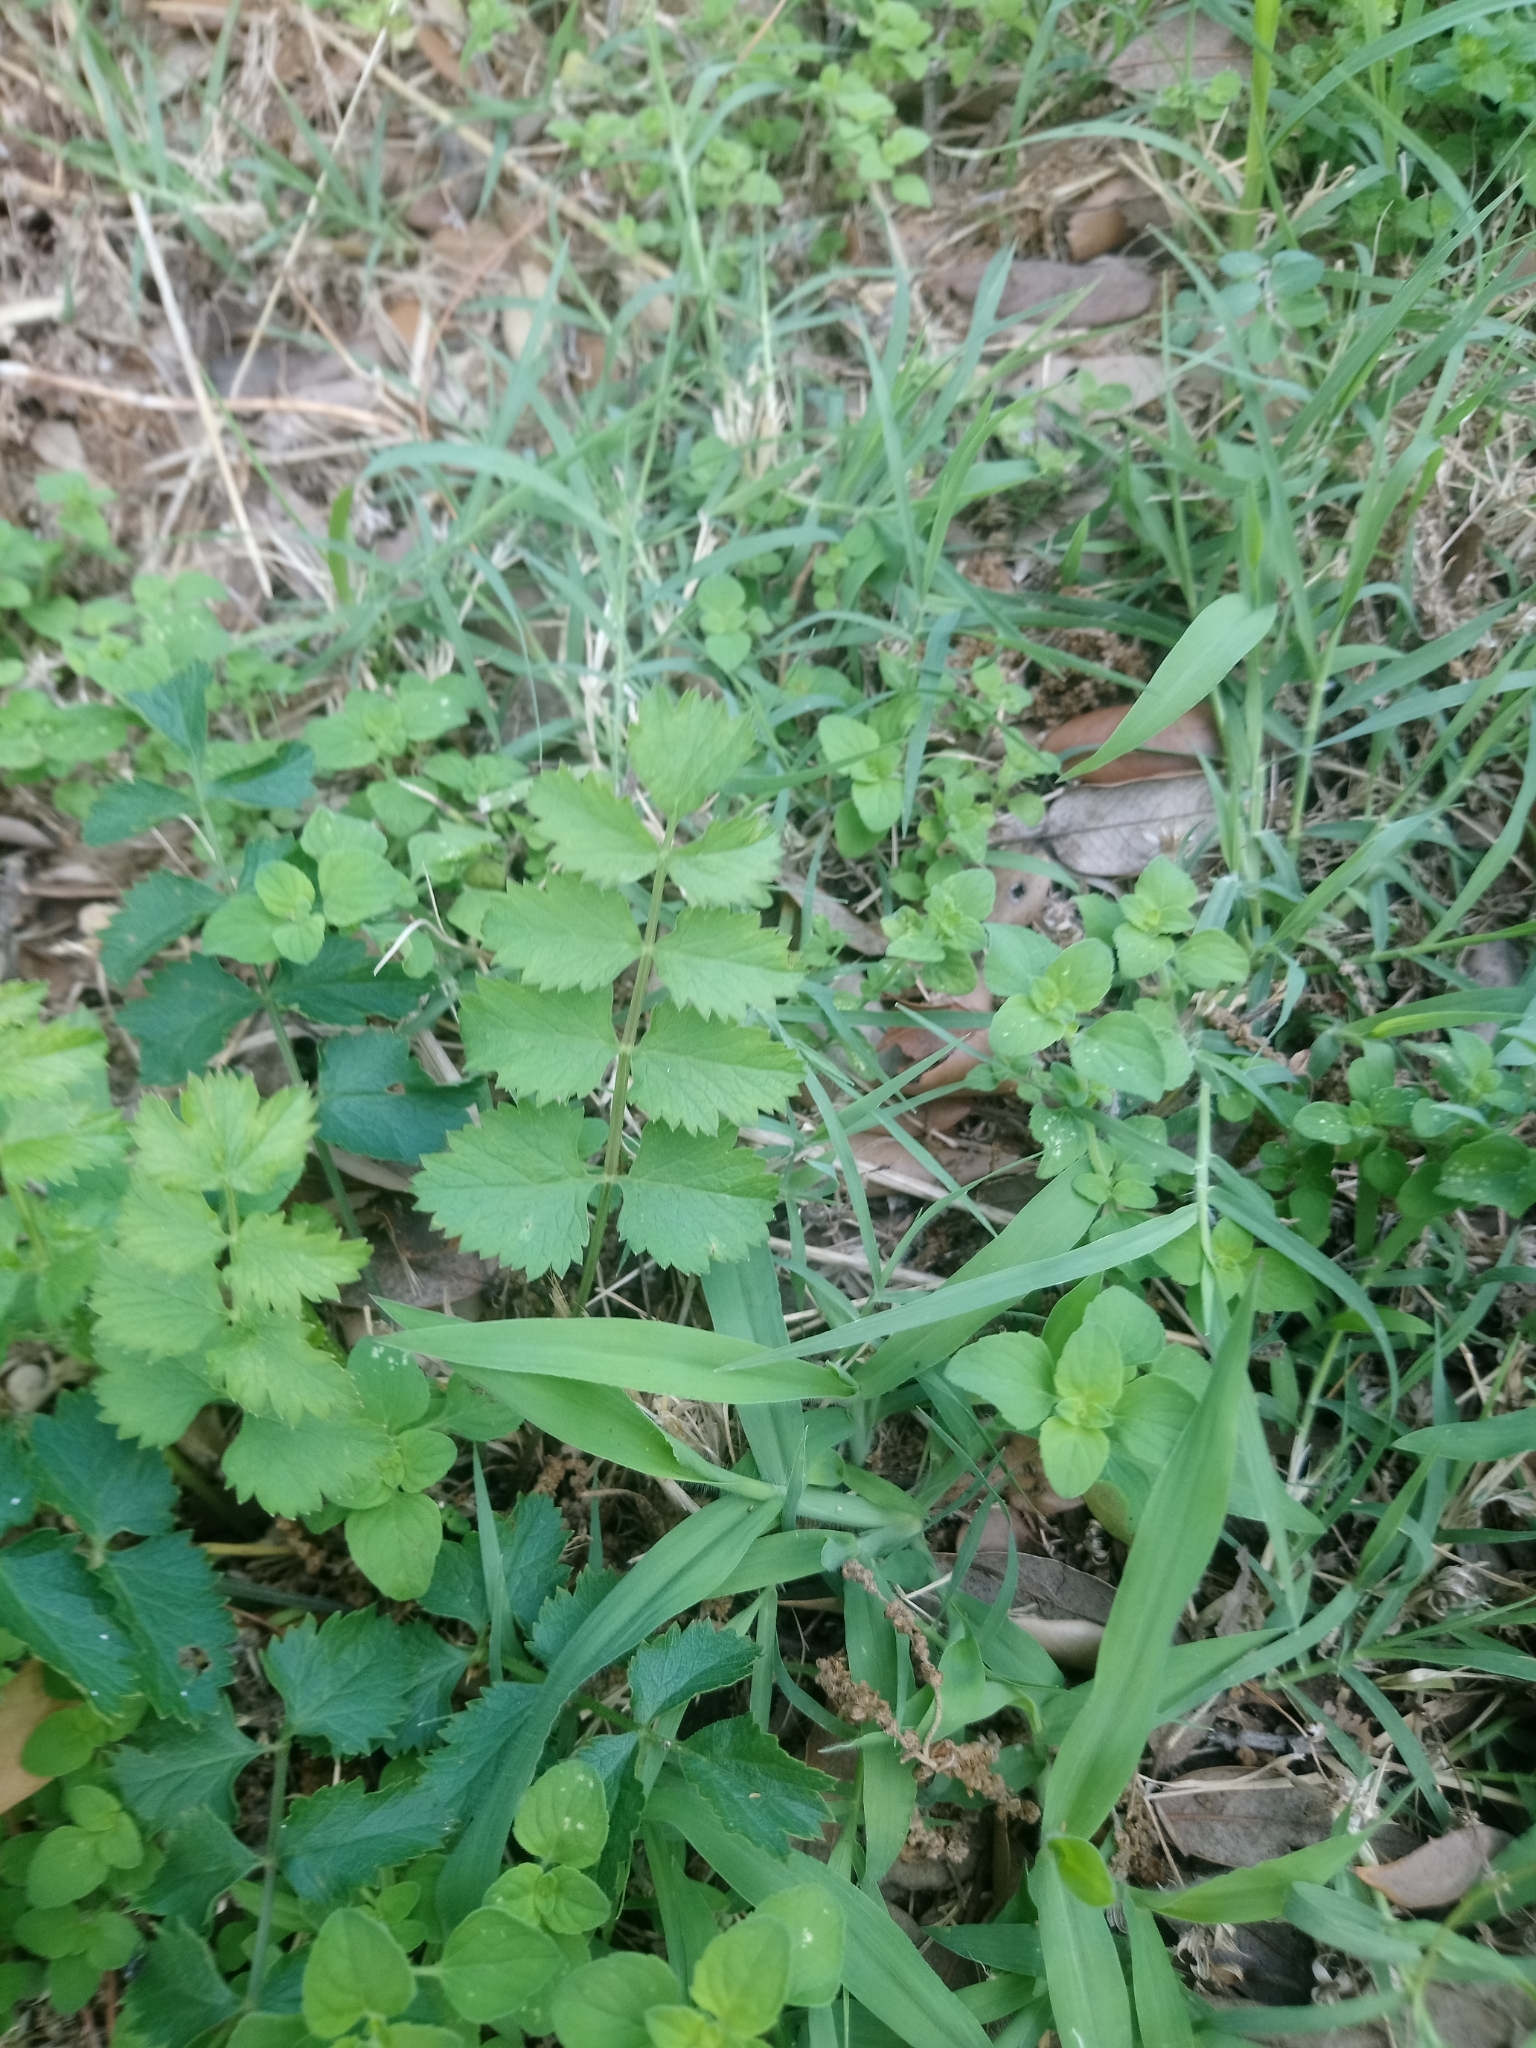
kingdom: Plantae
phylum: Tracheophyta
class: Magnoliopsida
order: Rosales
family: Rosaceae
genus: Poterium
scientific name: Poterium sanguisorba
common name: Salad burnet
